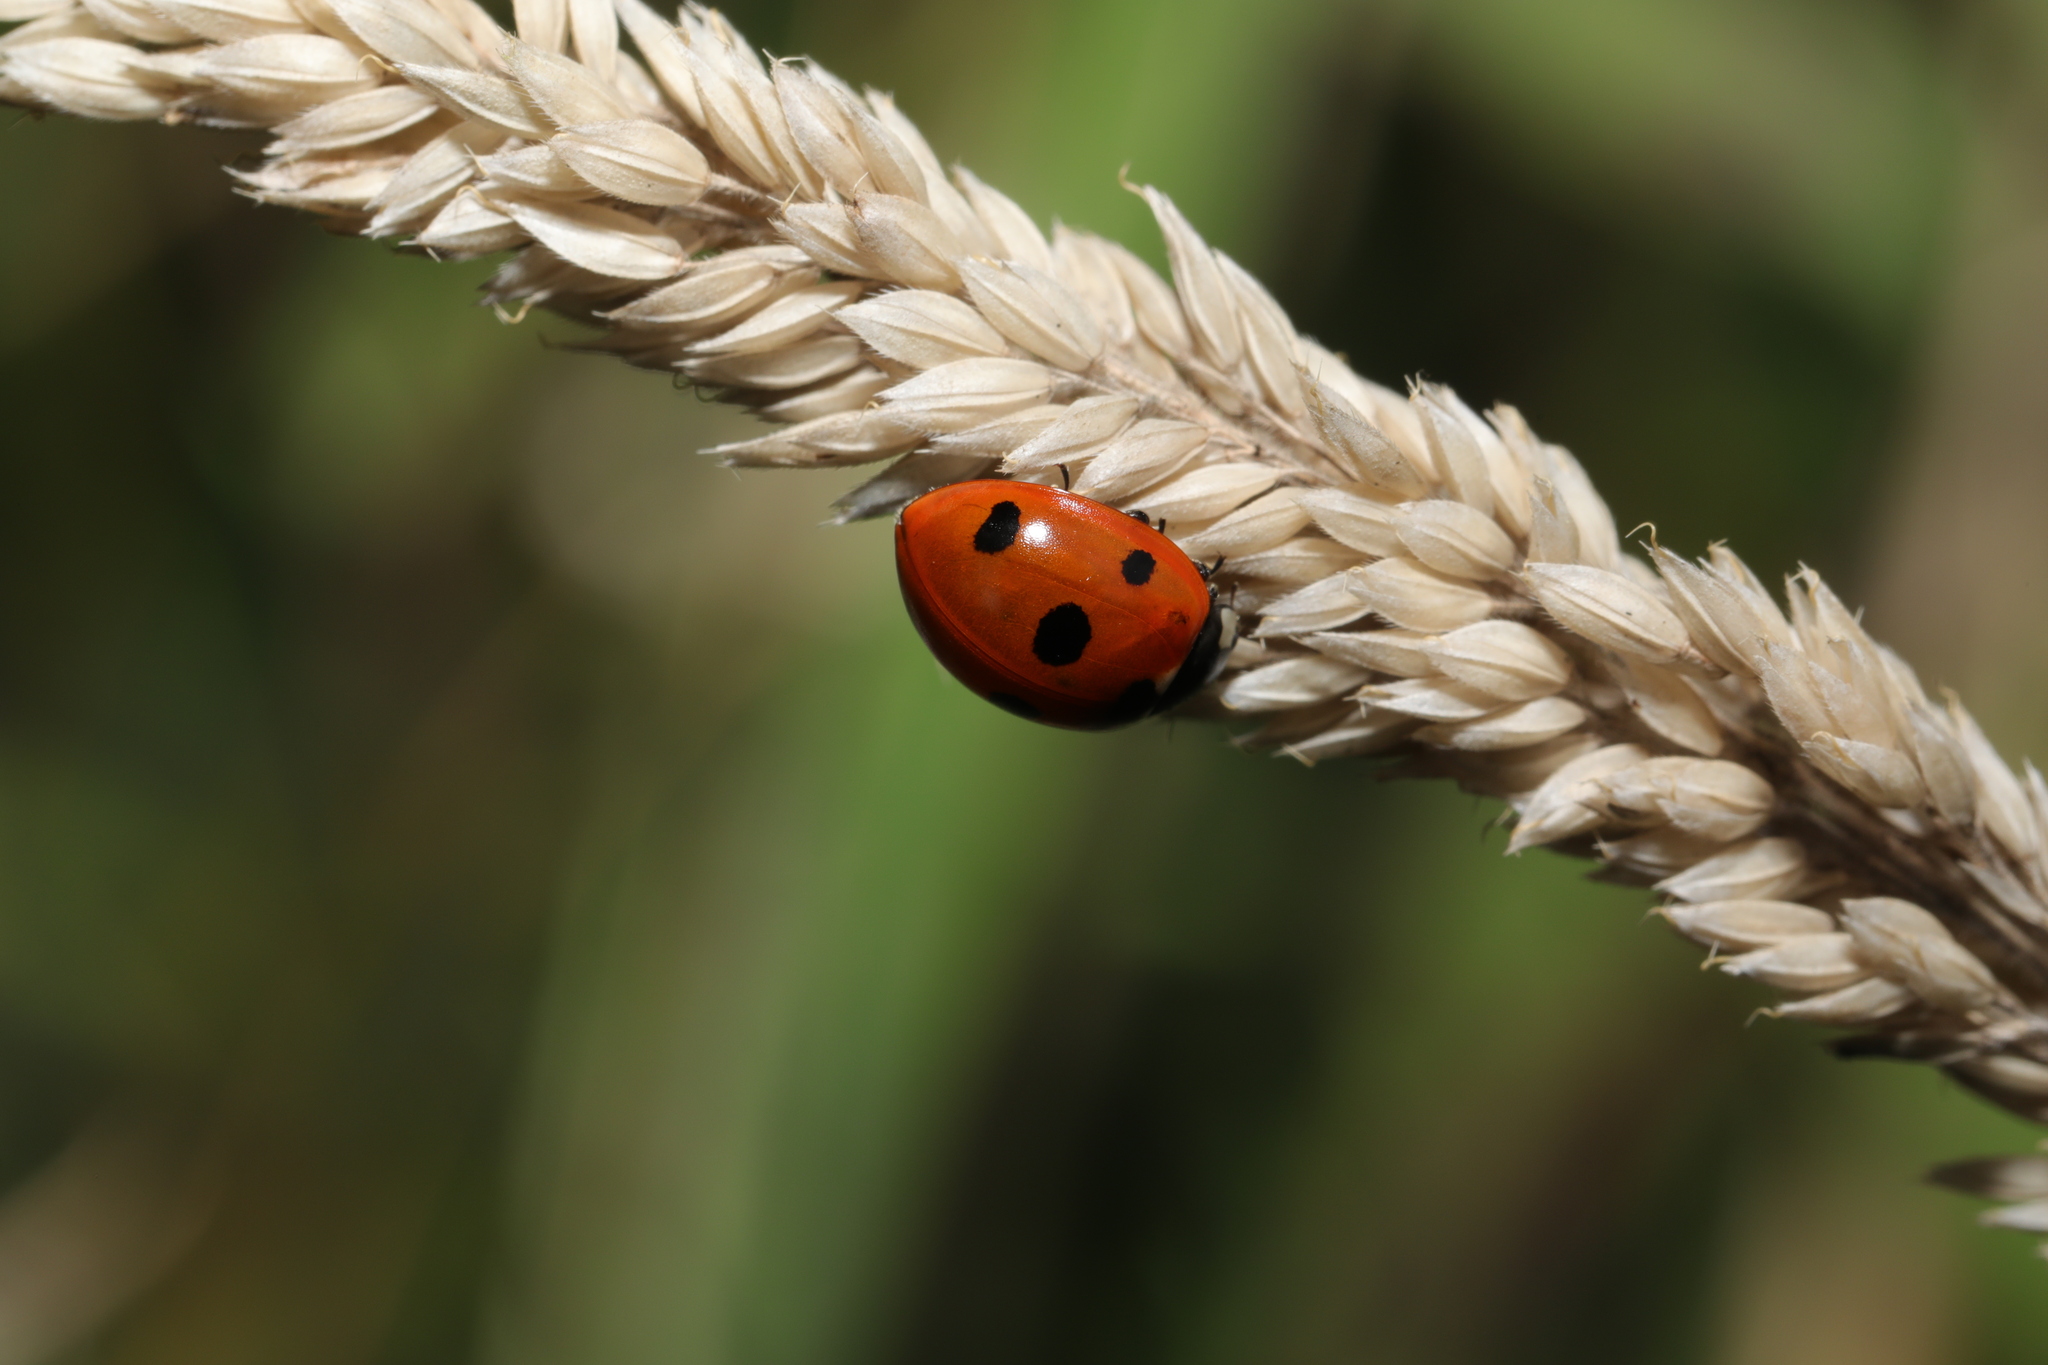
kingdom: Animalia
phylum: Arthropoda
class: Insecta
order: Coleoptera
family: Coccinellidae
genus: Coccinella
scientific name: Coccinella septempunctata
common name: Sevenspotted lady beetle
